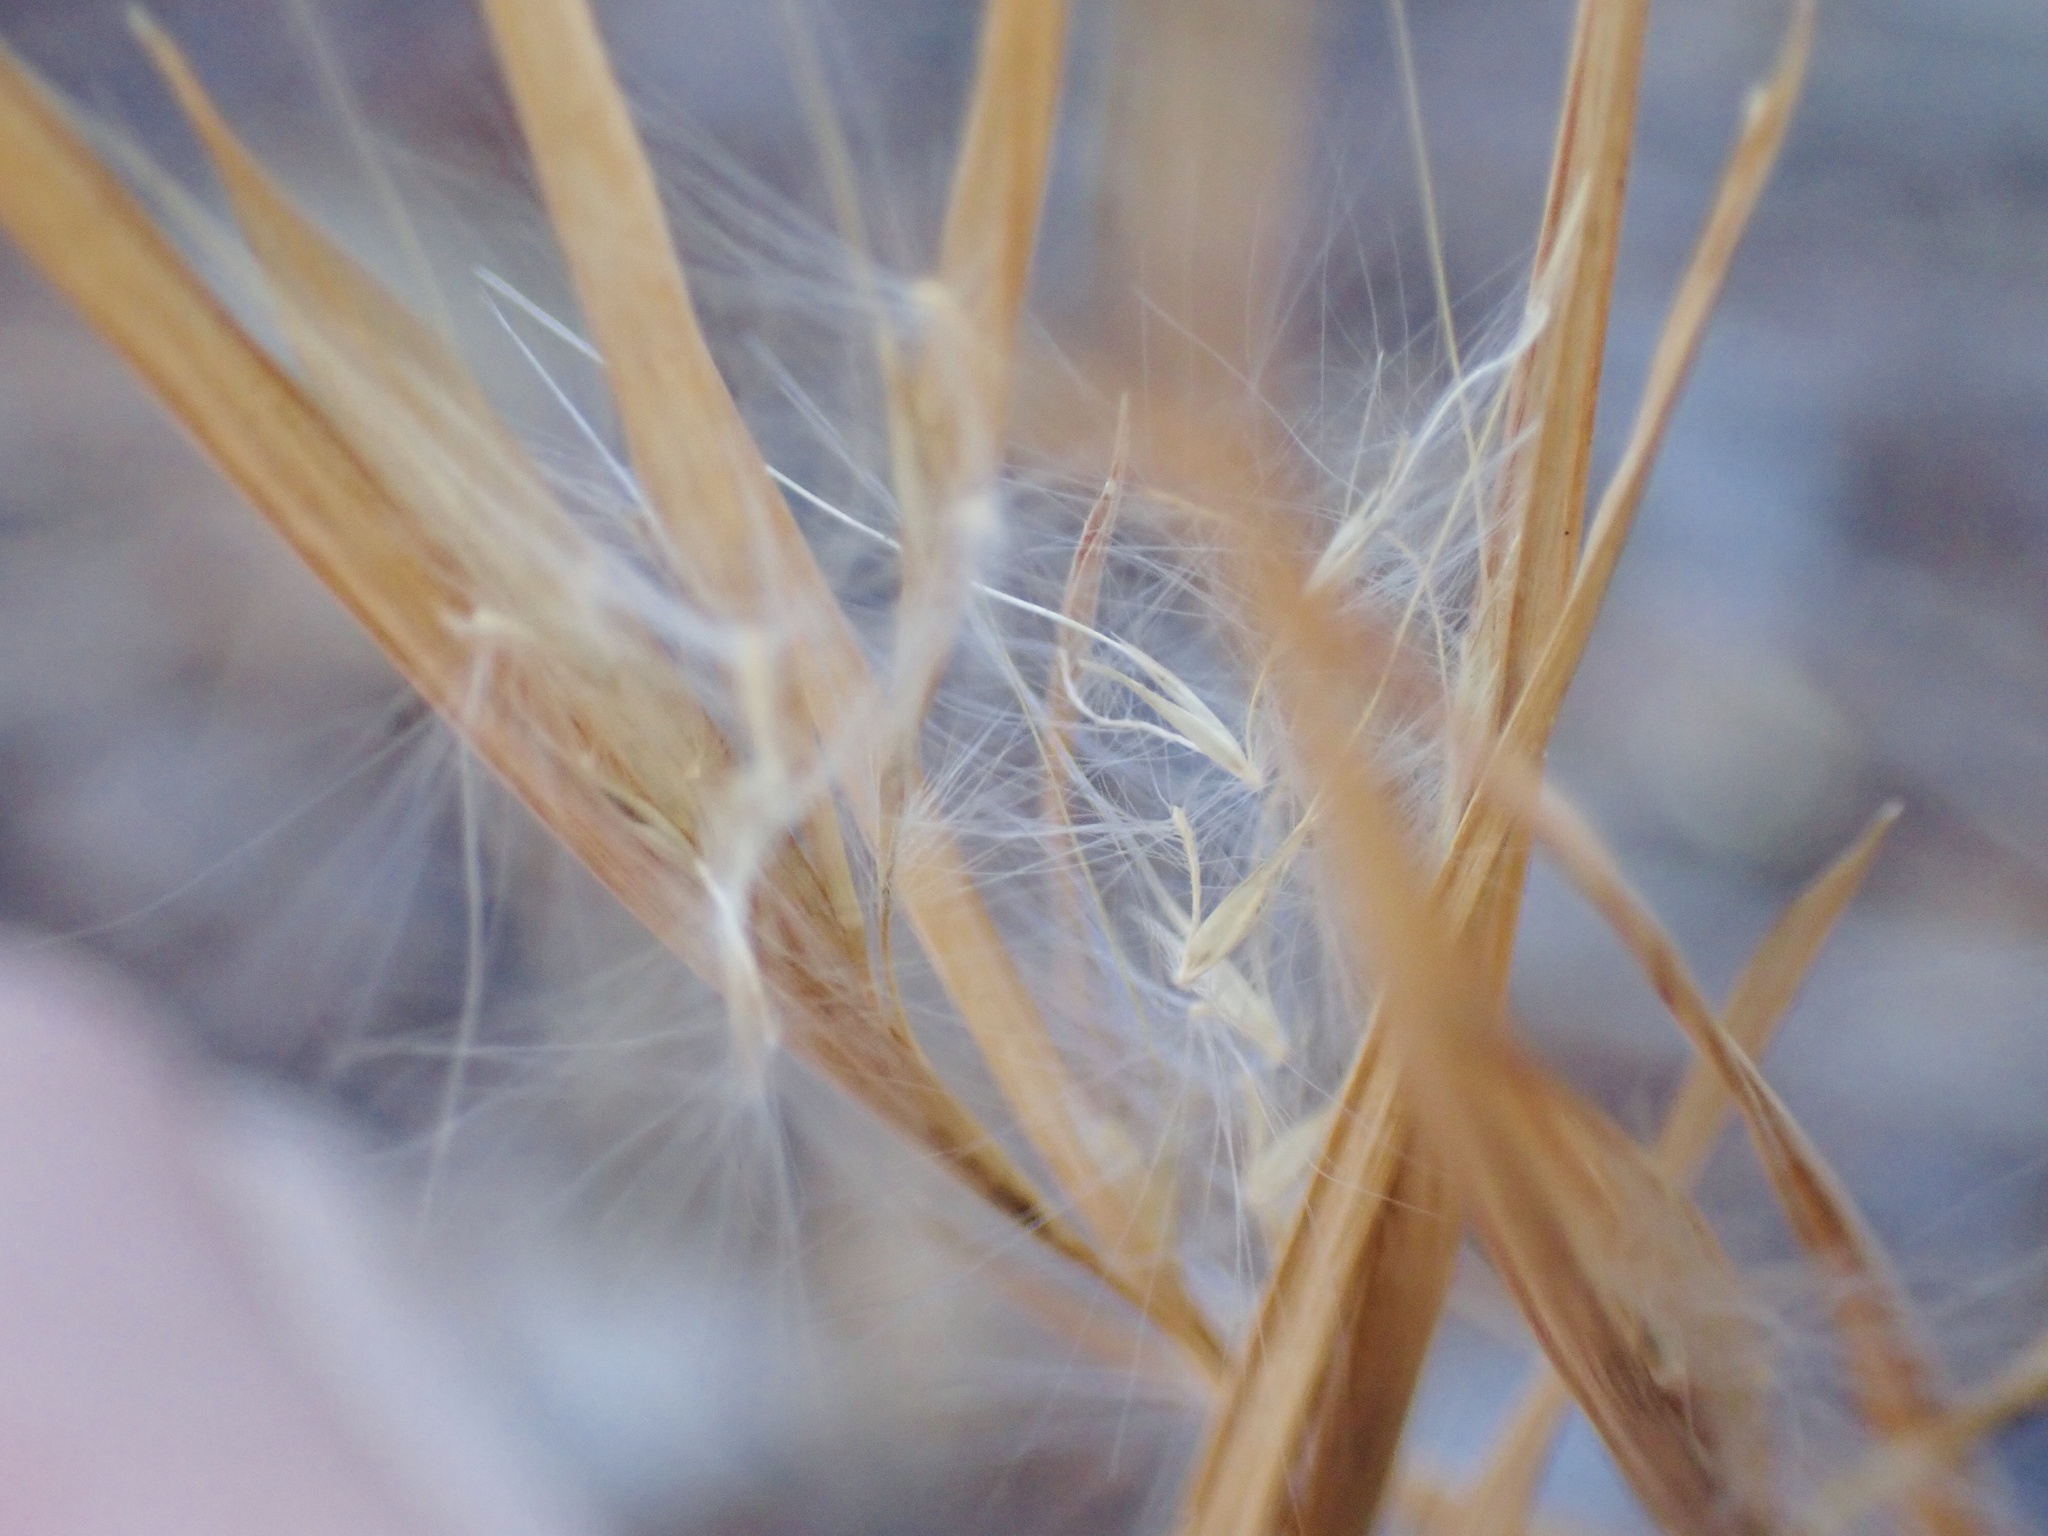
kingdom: Plantae
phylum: Tracheophyta
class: Liliopsida
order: Poales
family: Poaceae
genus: Andropogon
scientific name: Andropogon virginicus
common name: Broomsedge bluestem
